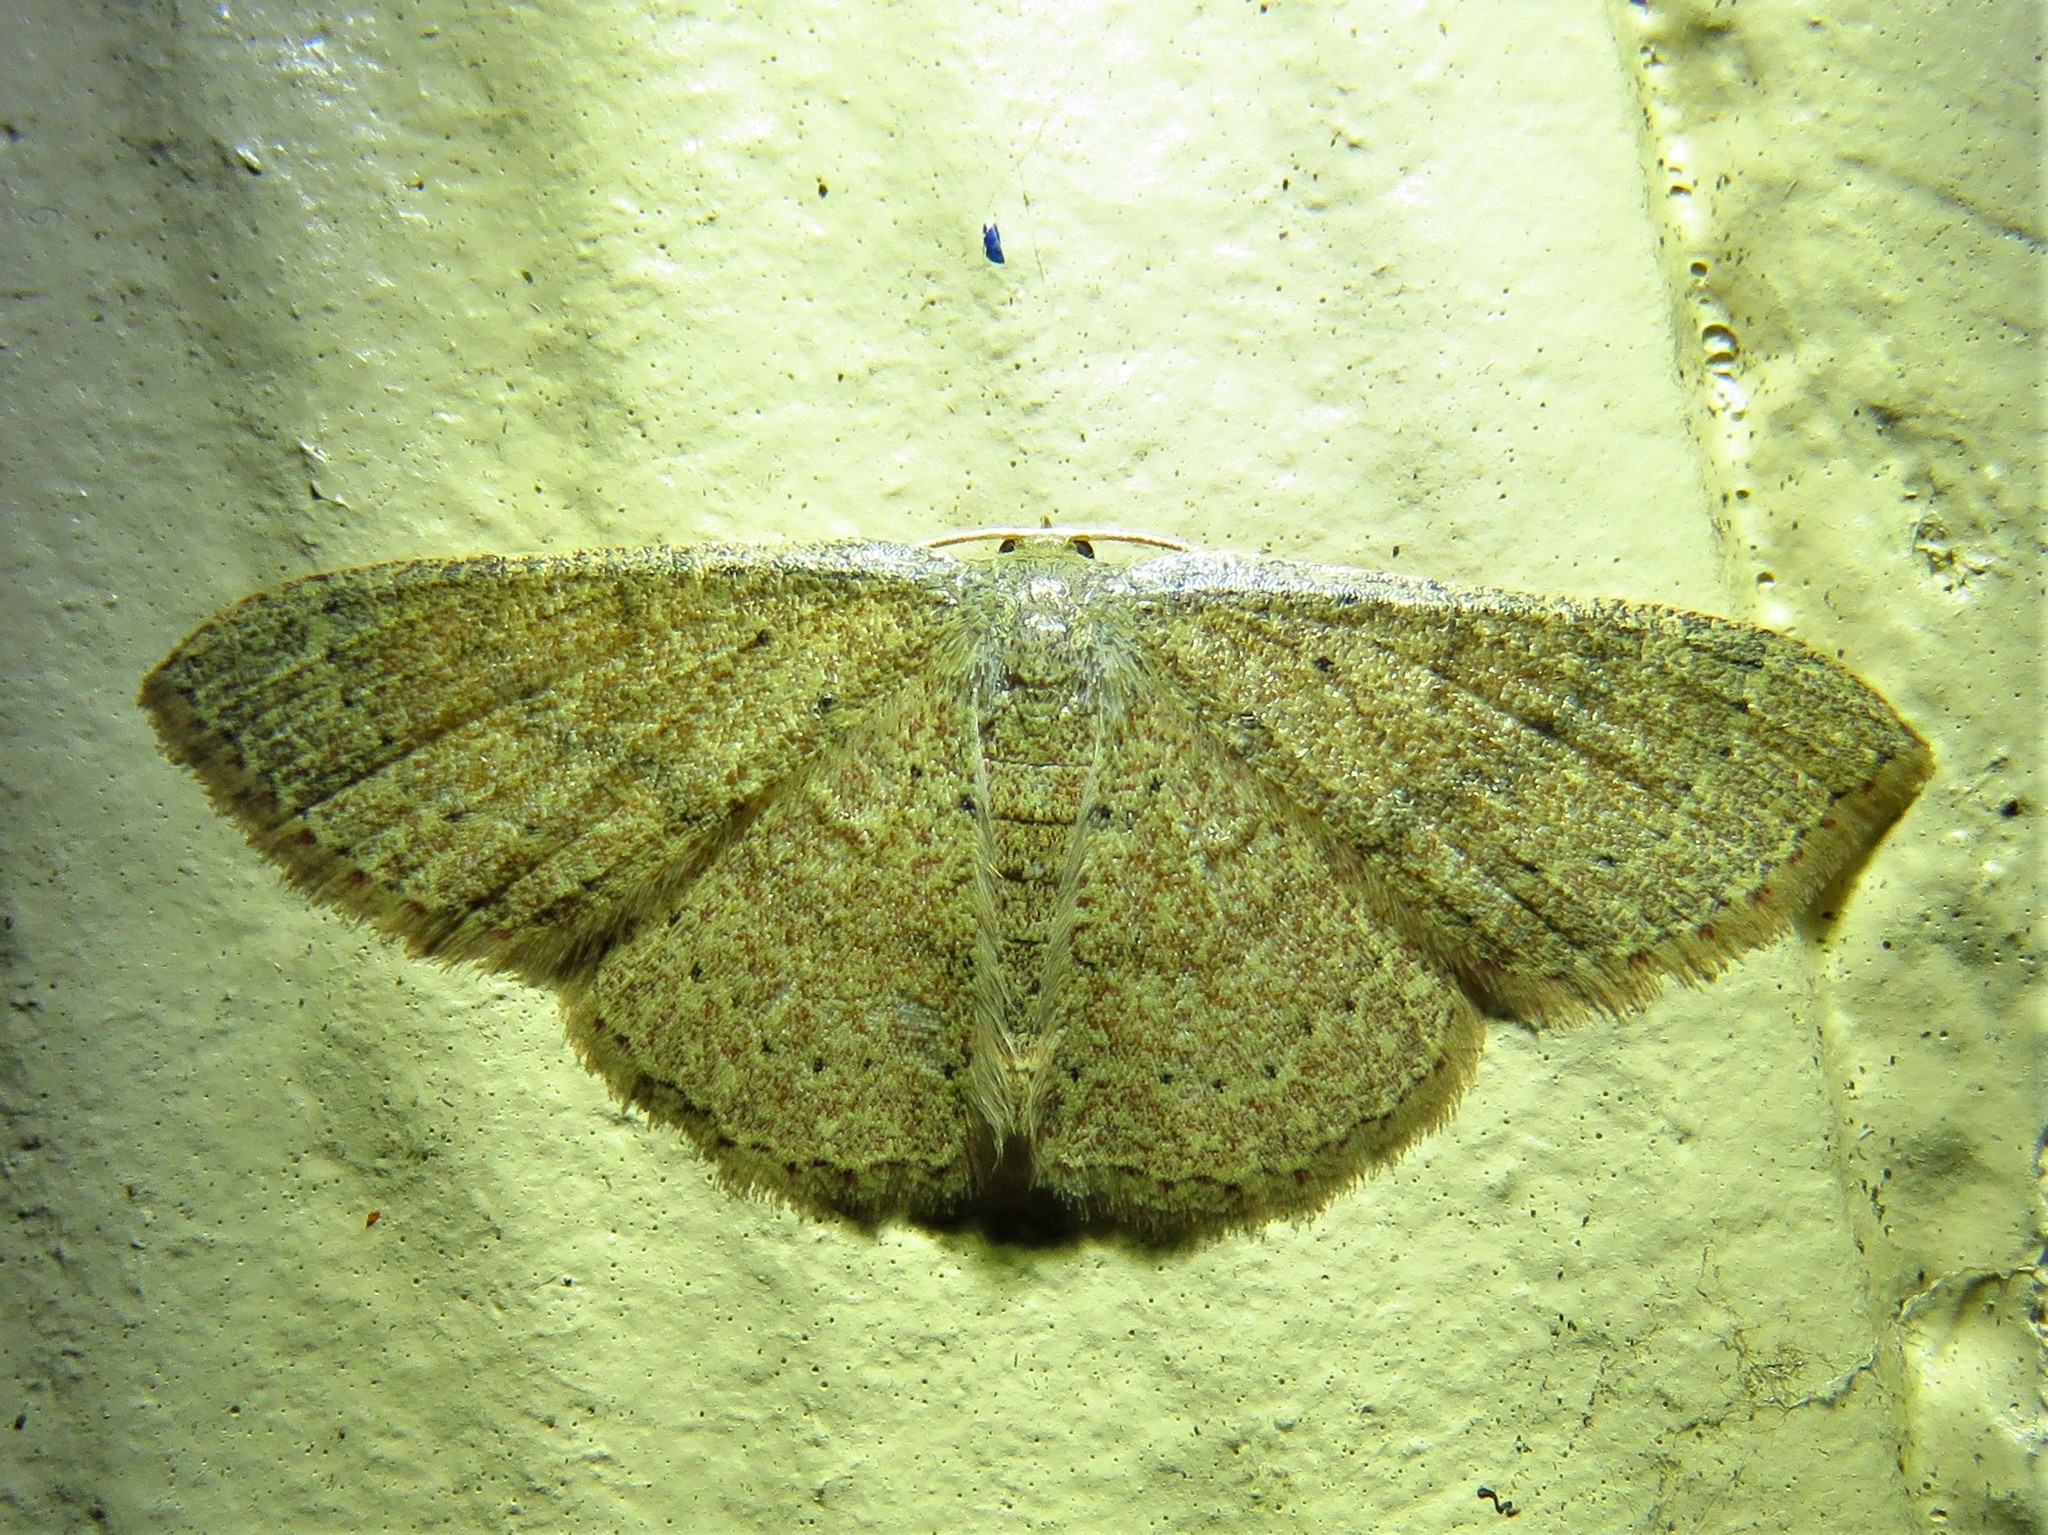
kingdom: Animalia
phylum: Arthropoda
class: Insecta
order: Lepidoptera
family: Geometridae
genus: Pleuroprucha
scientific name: Pleuroprucha insulsaria
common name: Common tan wave
